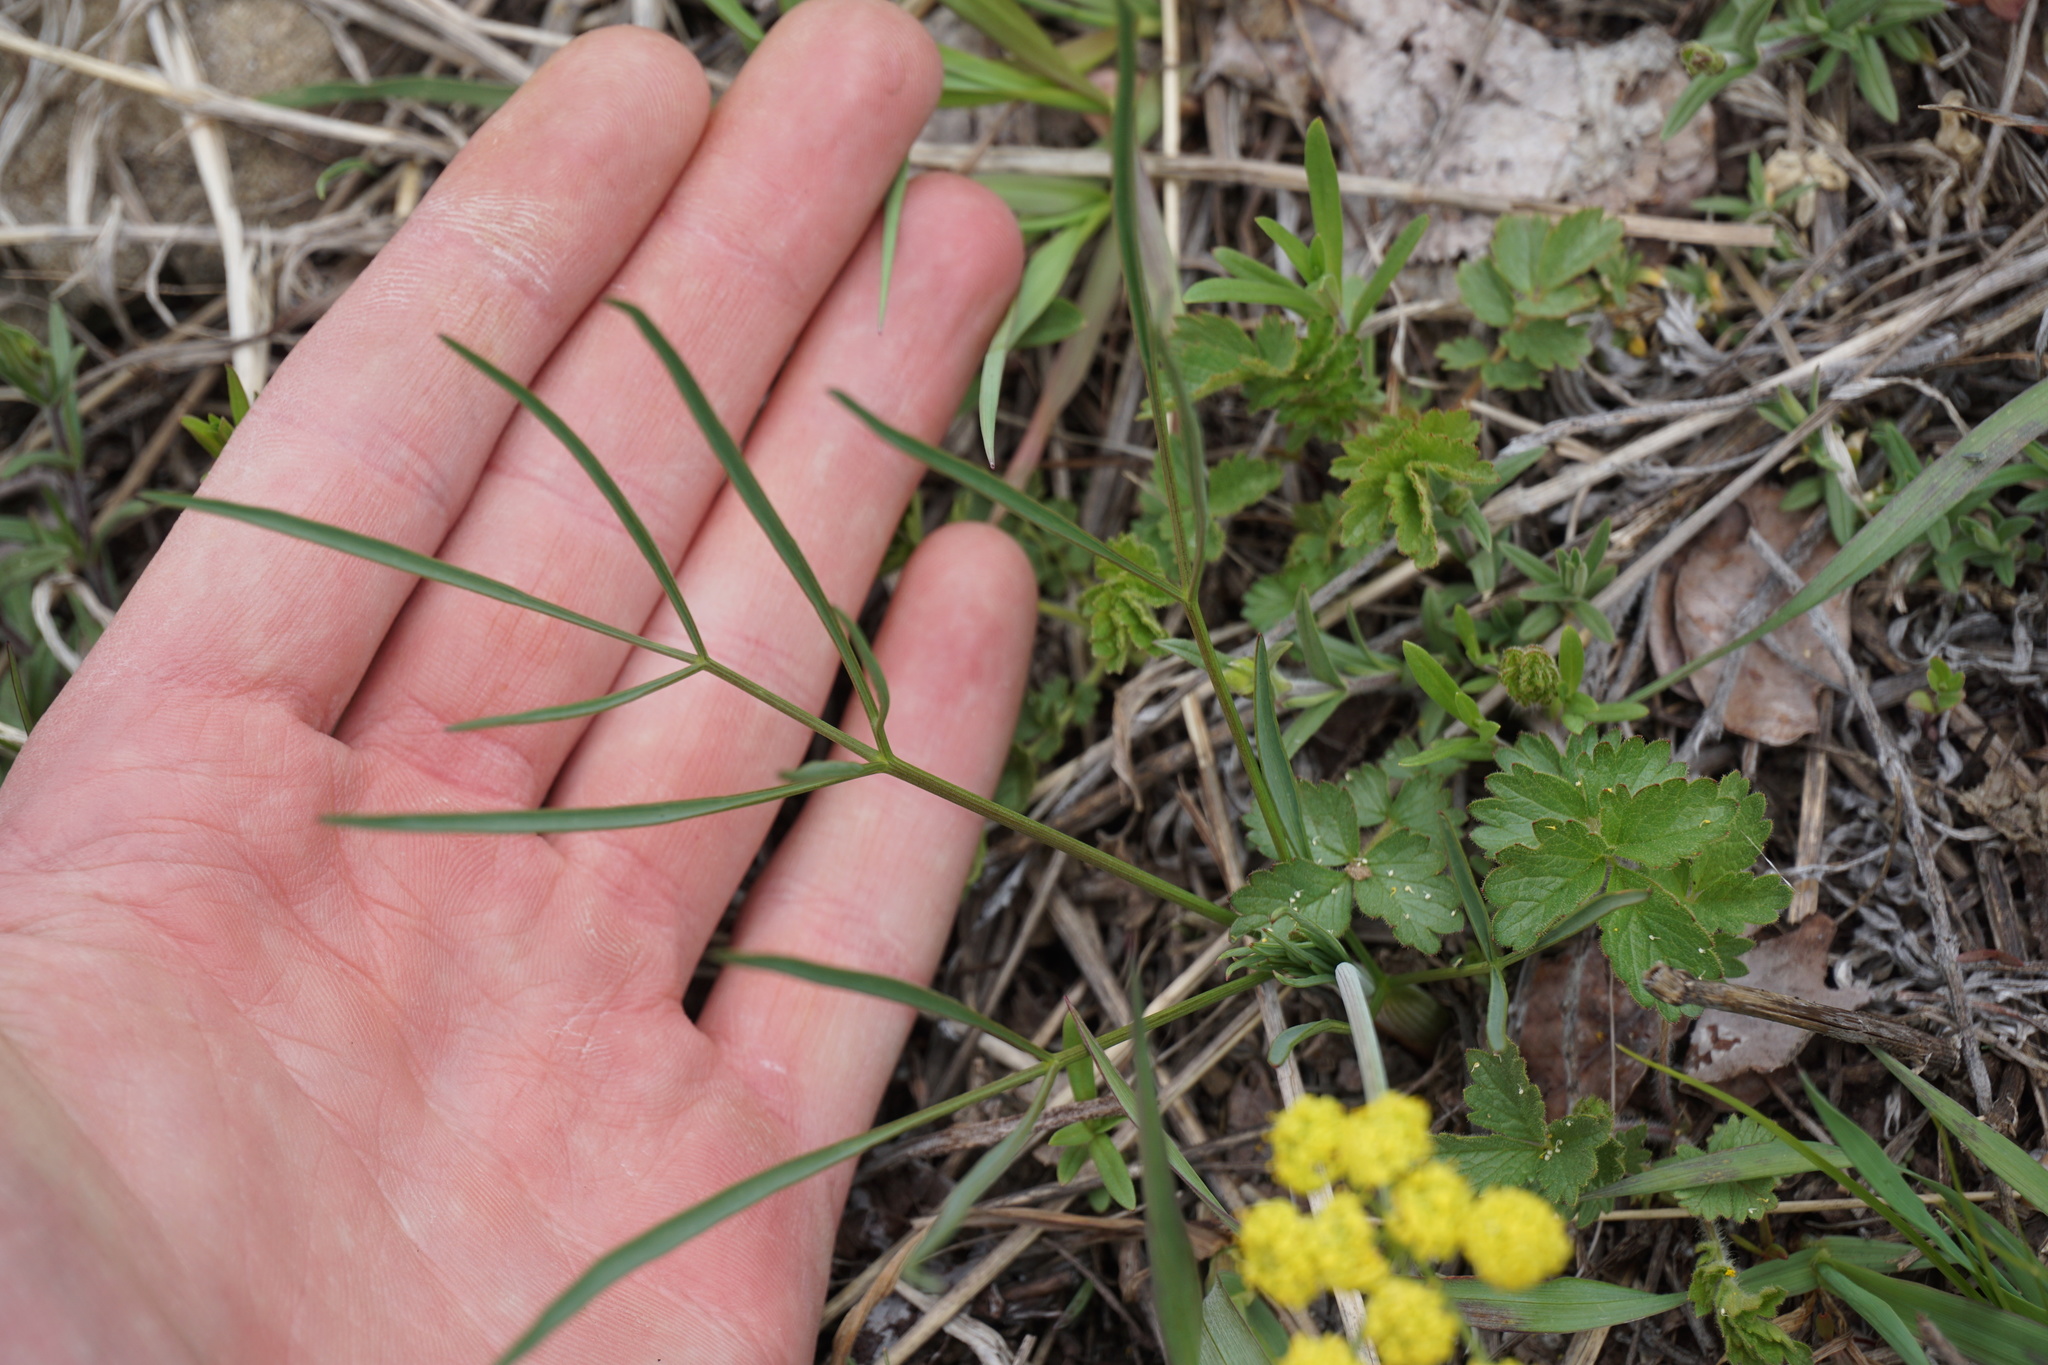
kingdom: Plantae
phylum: Tracheophyta
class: Magnoliopsida
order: Apiales
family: Apiaceae
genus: Lomatium
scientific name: Lomatium triternatum
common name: Ternate lomatium
